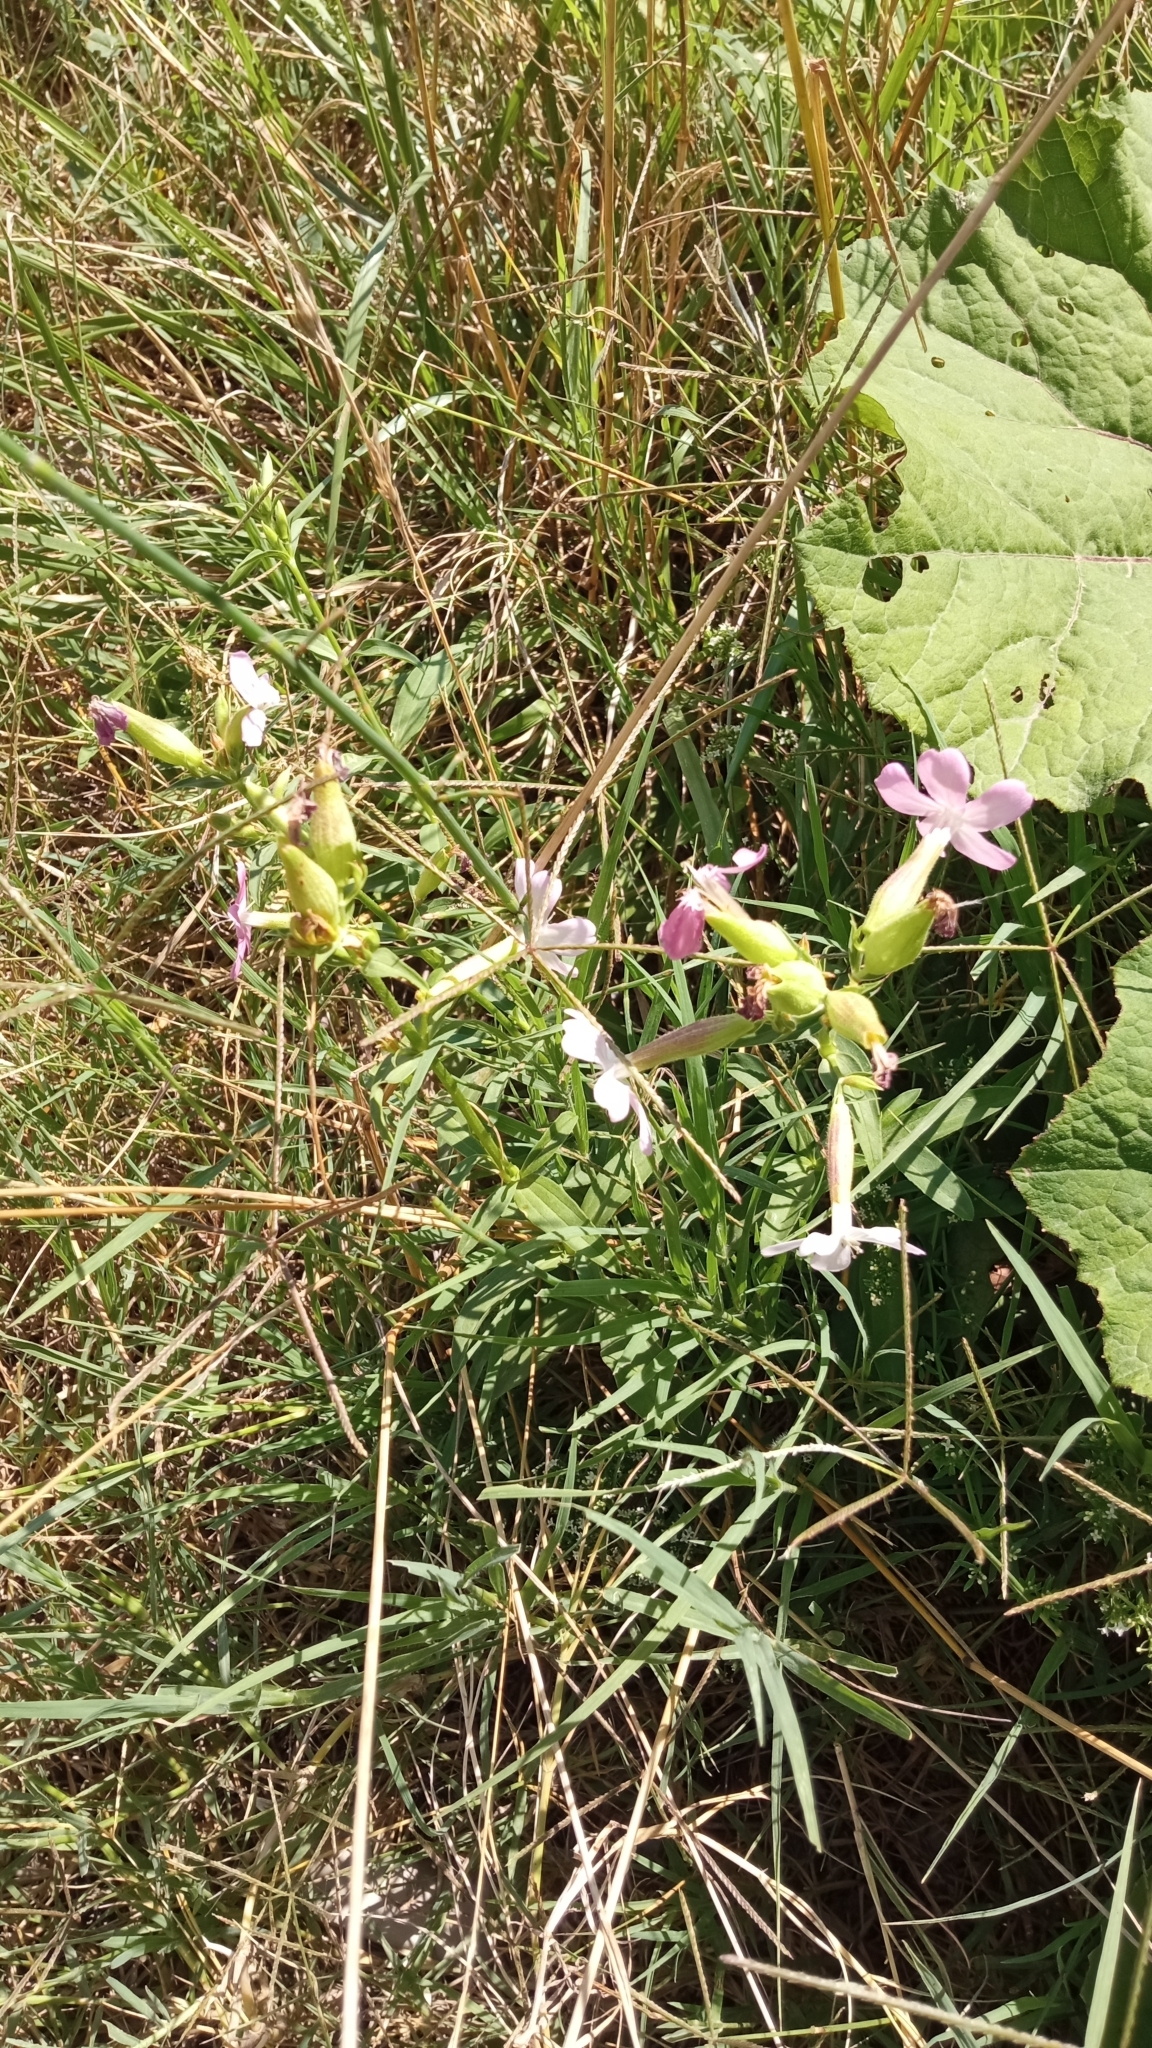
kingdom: Plantae
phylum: Tracheophyta
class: Magnoliopsida
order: Caryophyllales
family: Caryophyllaceae
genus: Saponaria
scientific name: Saponaria officinalis
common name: Soapwort
